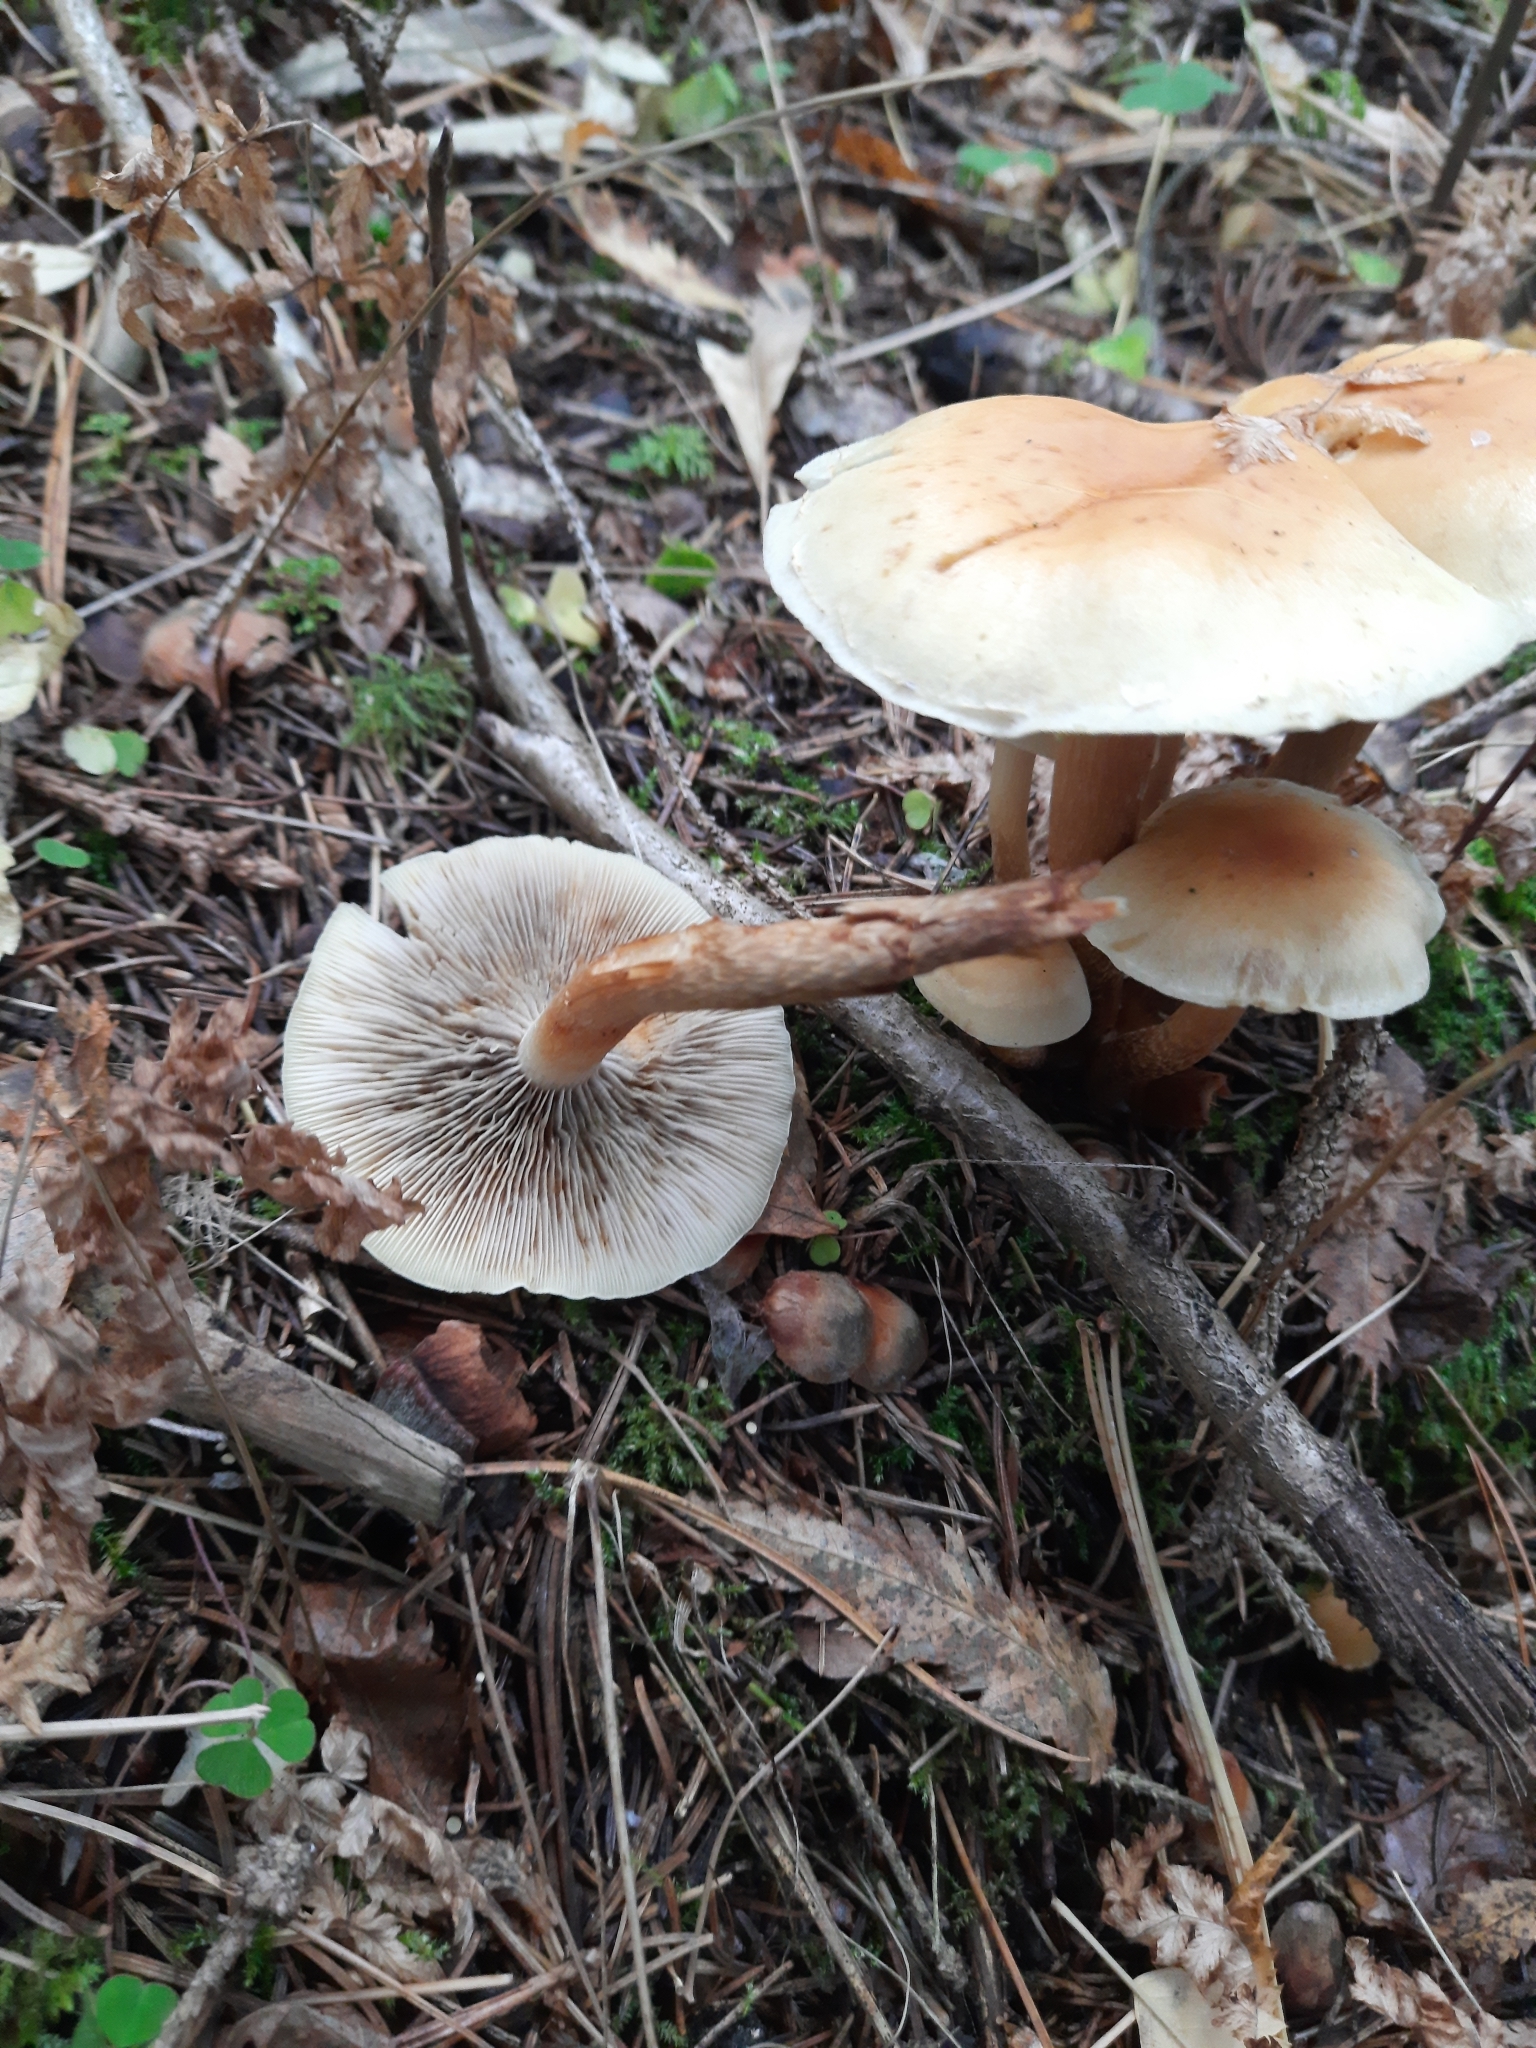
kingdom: Fungi
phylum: Basidiomycota
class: Agaricomycetes
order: Agaricales
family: Strophariaceae
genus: Hypholoma
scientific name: Hypholoma capnoides
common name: Conifer tuft
